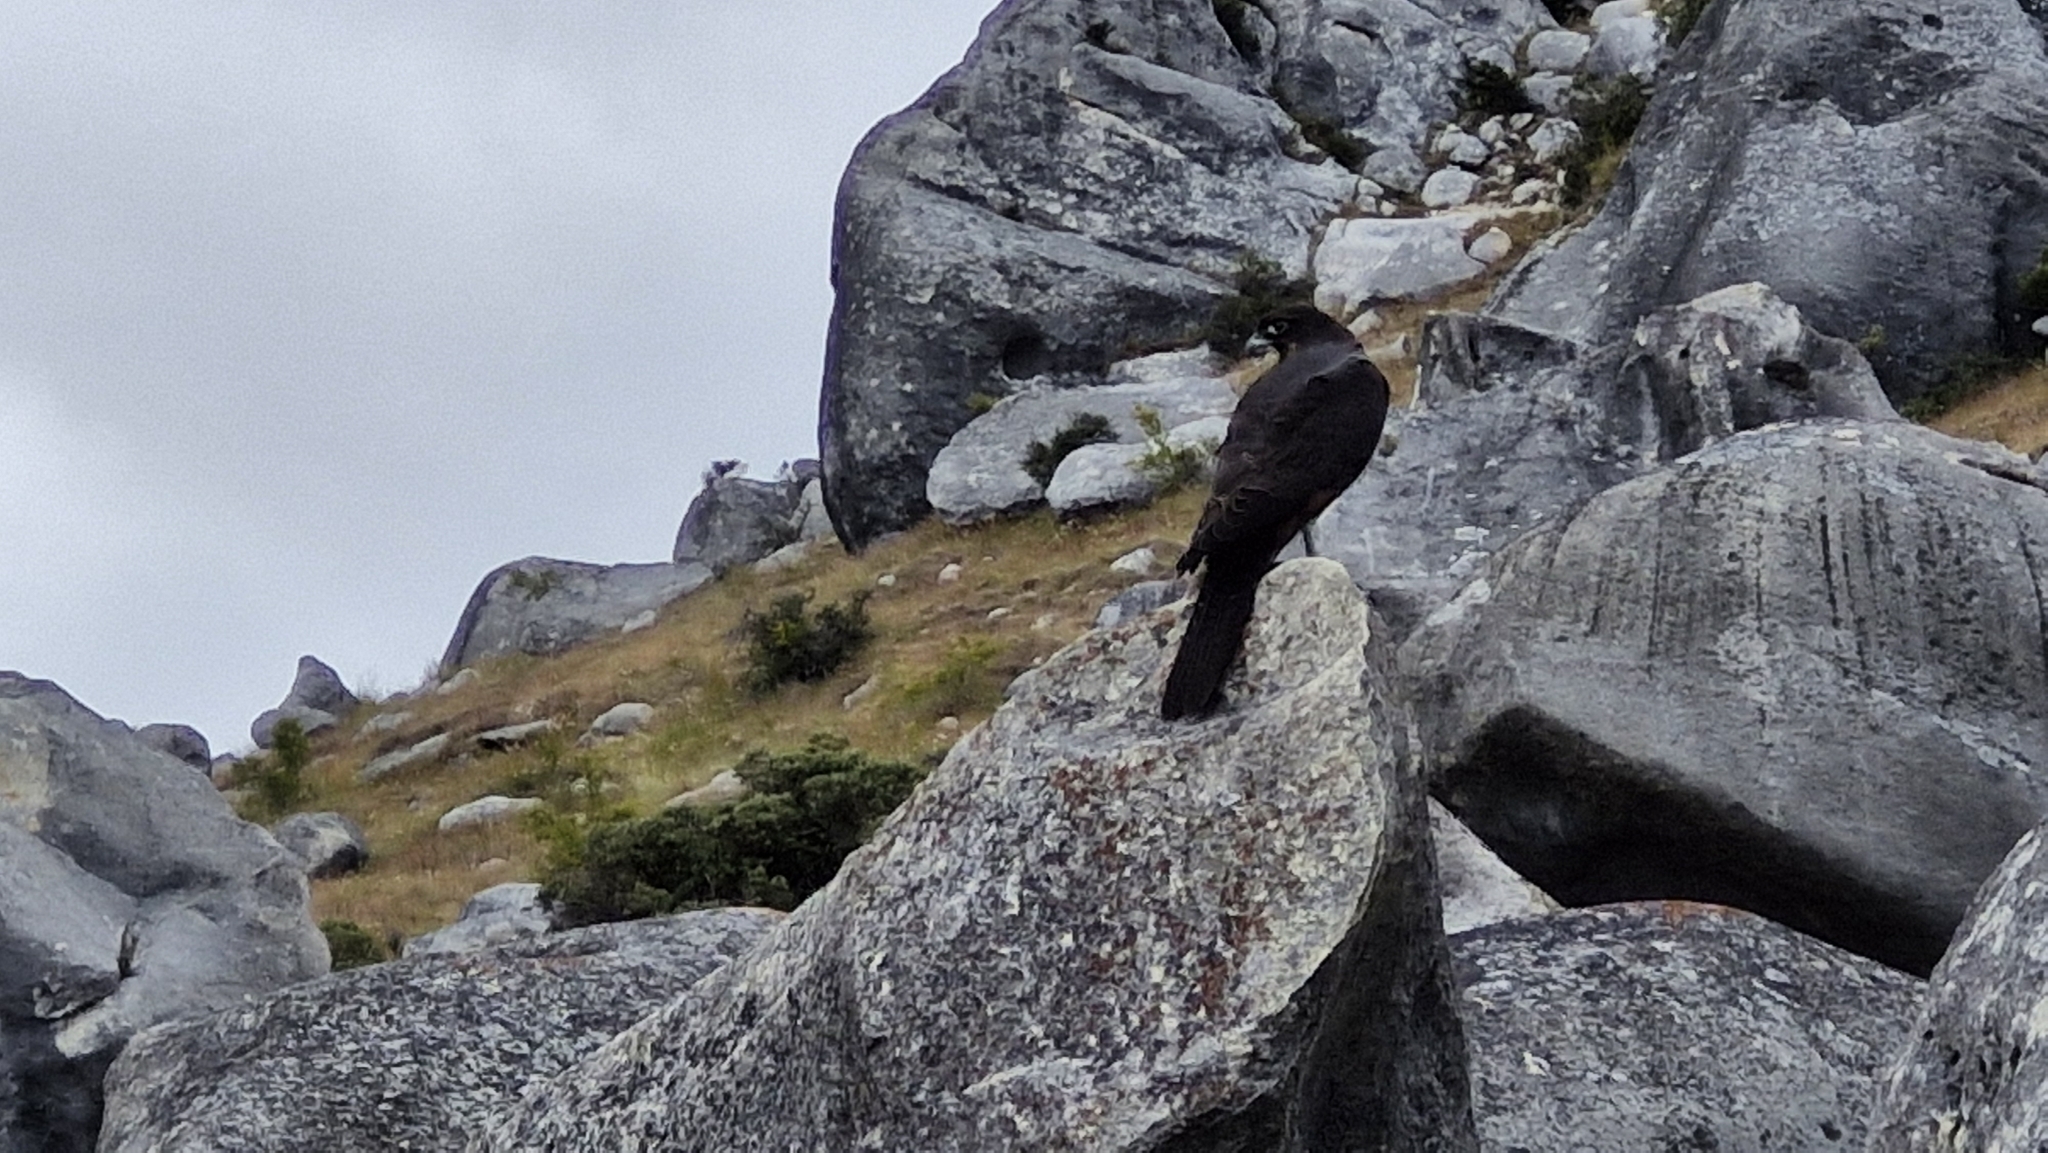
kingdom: Animalia
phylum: Chordata
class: Aves
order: Falconiformes
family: Falconidae
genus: Falco
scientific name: Falco novaeseelandiae
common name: New zealand falcon
